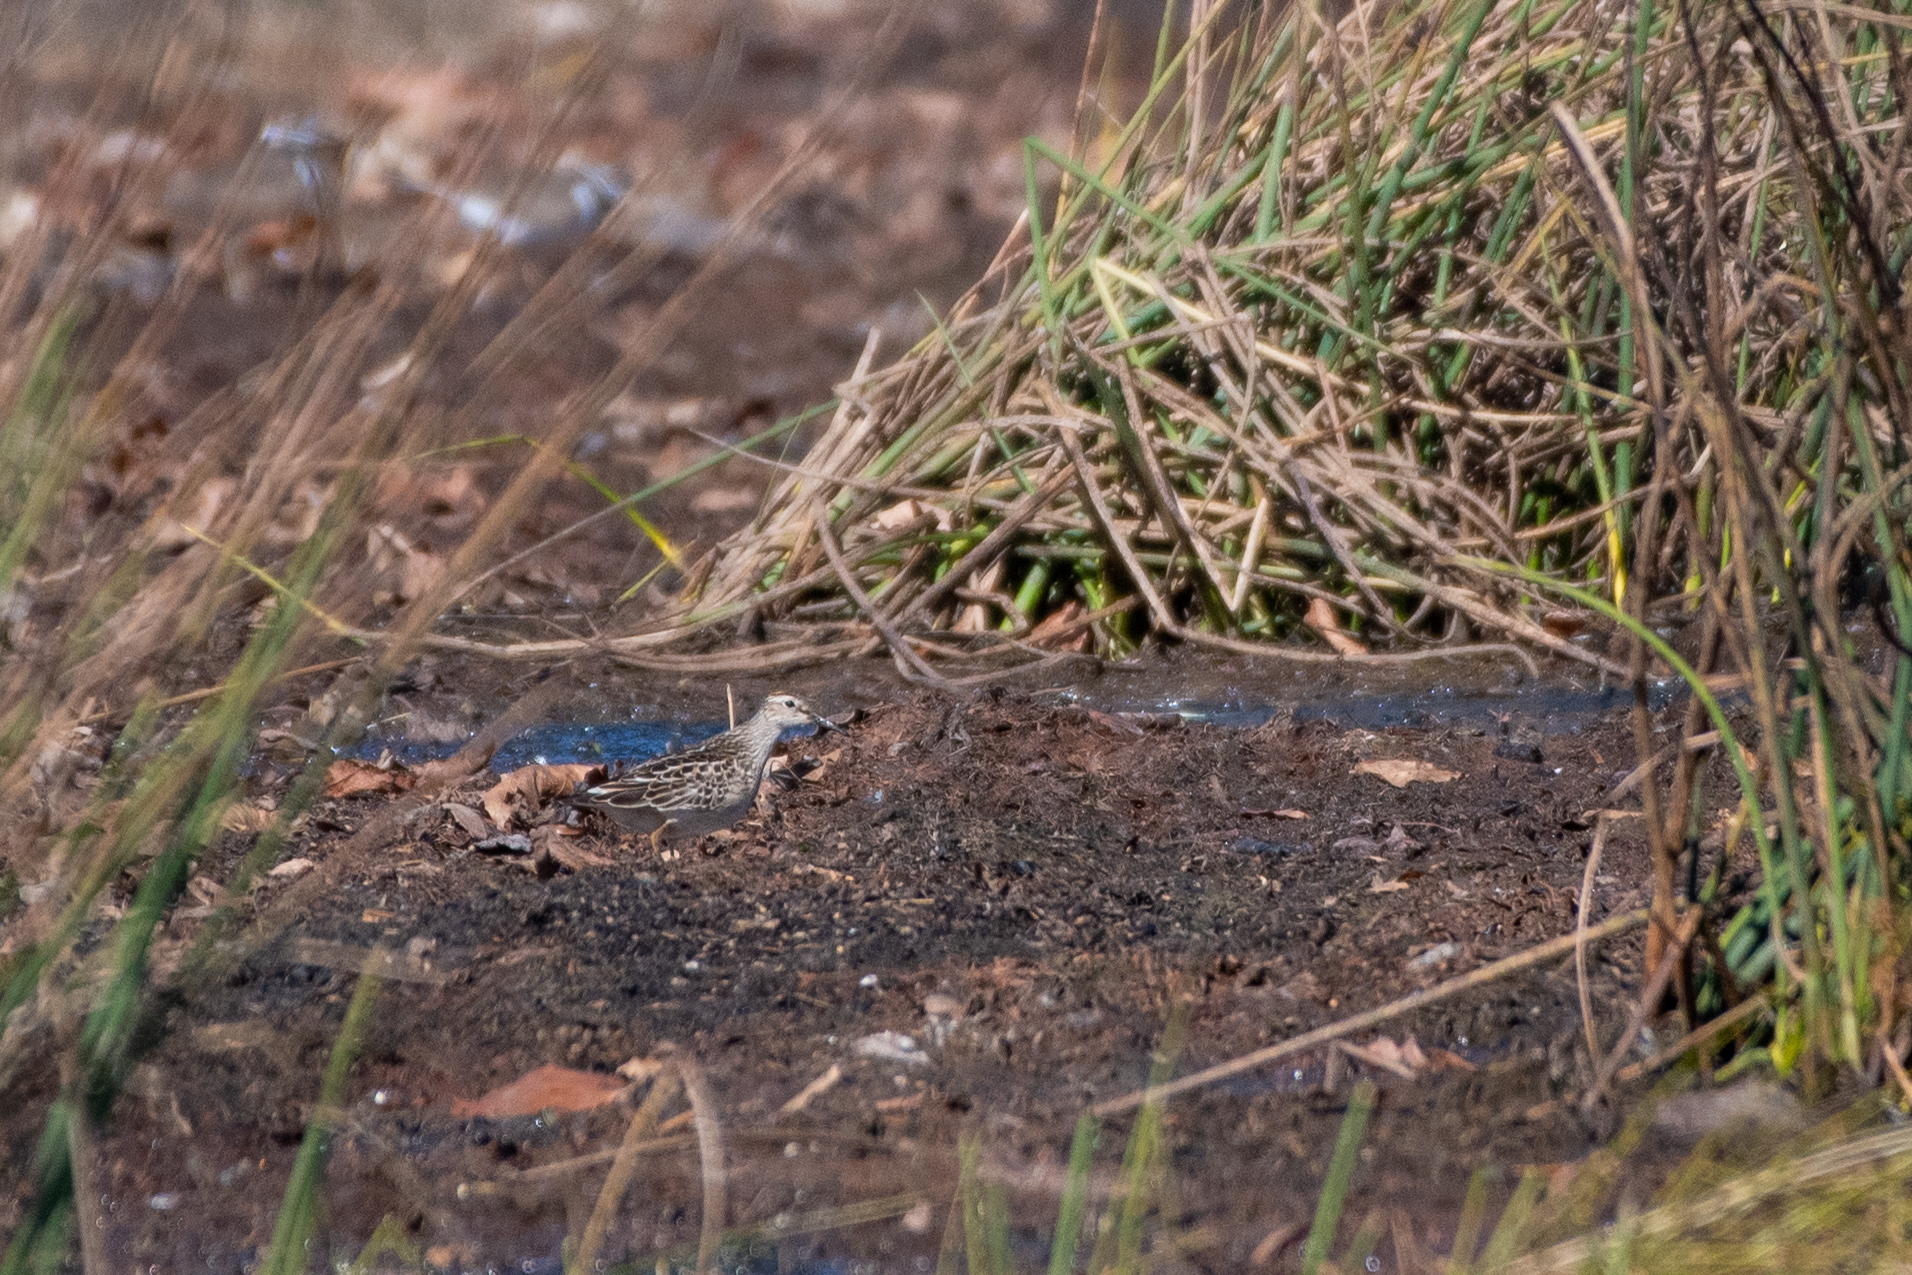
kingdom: Animalia
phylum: Chordata
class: Aves
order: Charadriiformes
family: Scolopacidae
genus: Calidris
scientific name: Calidris melanotos
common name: Pectoral sandpiper
